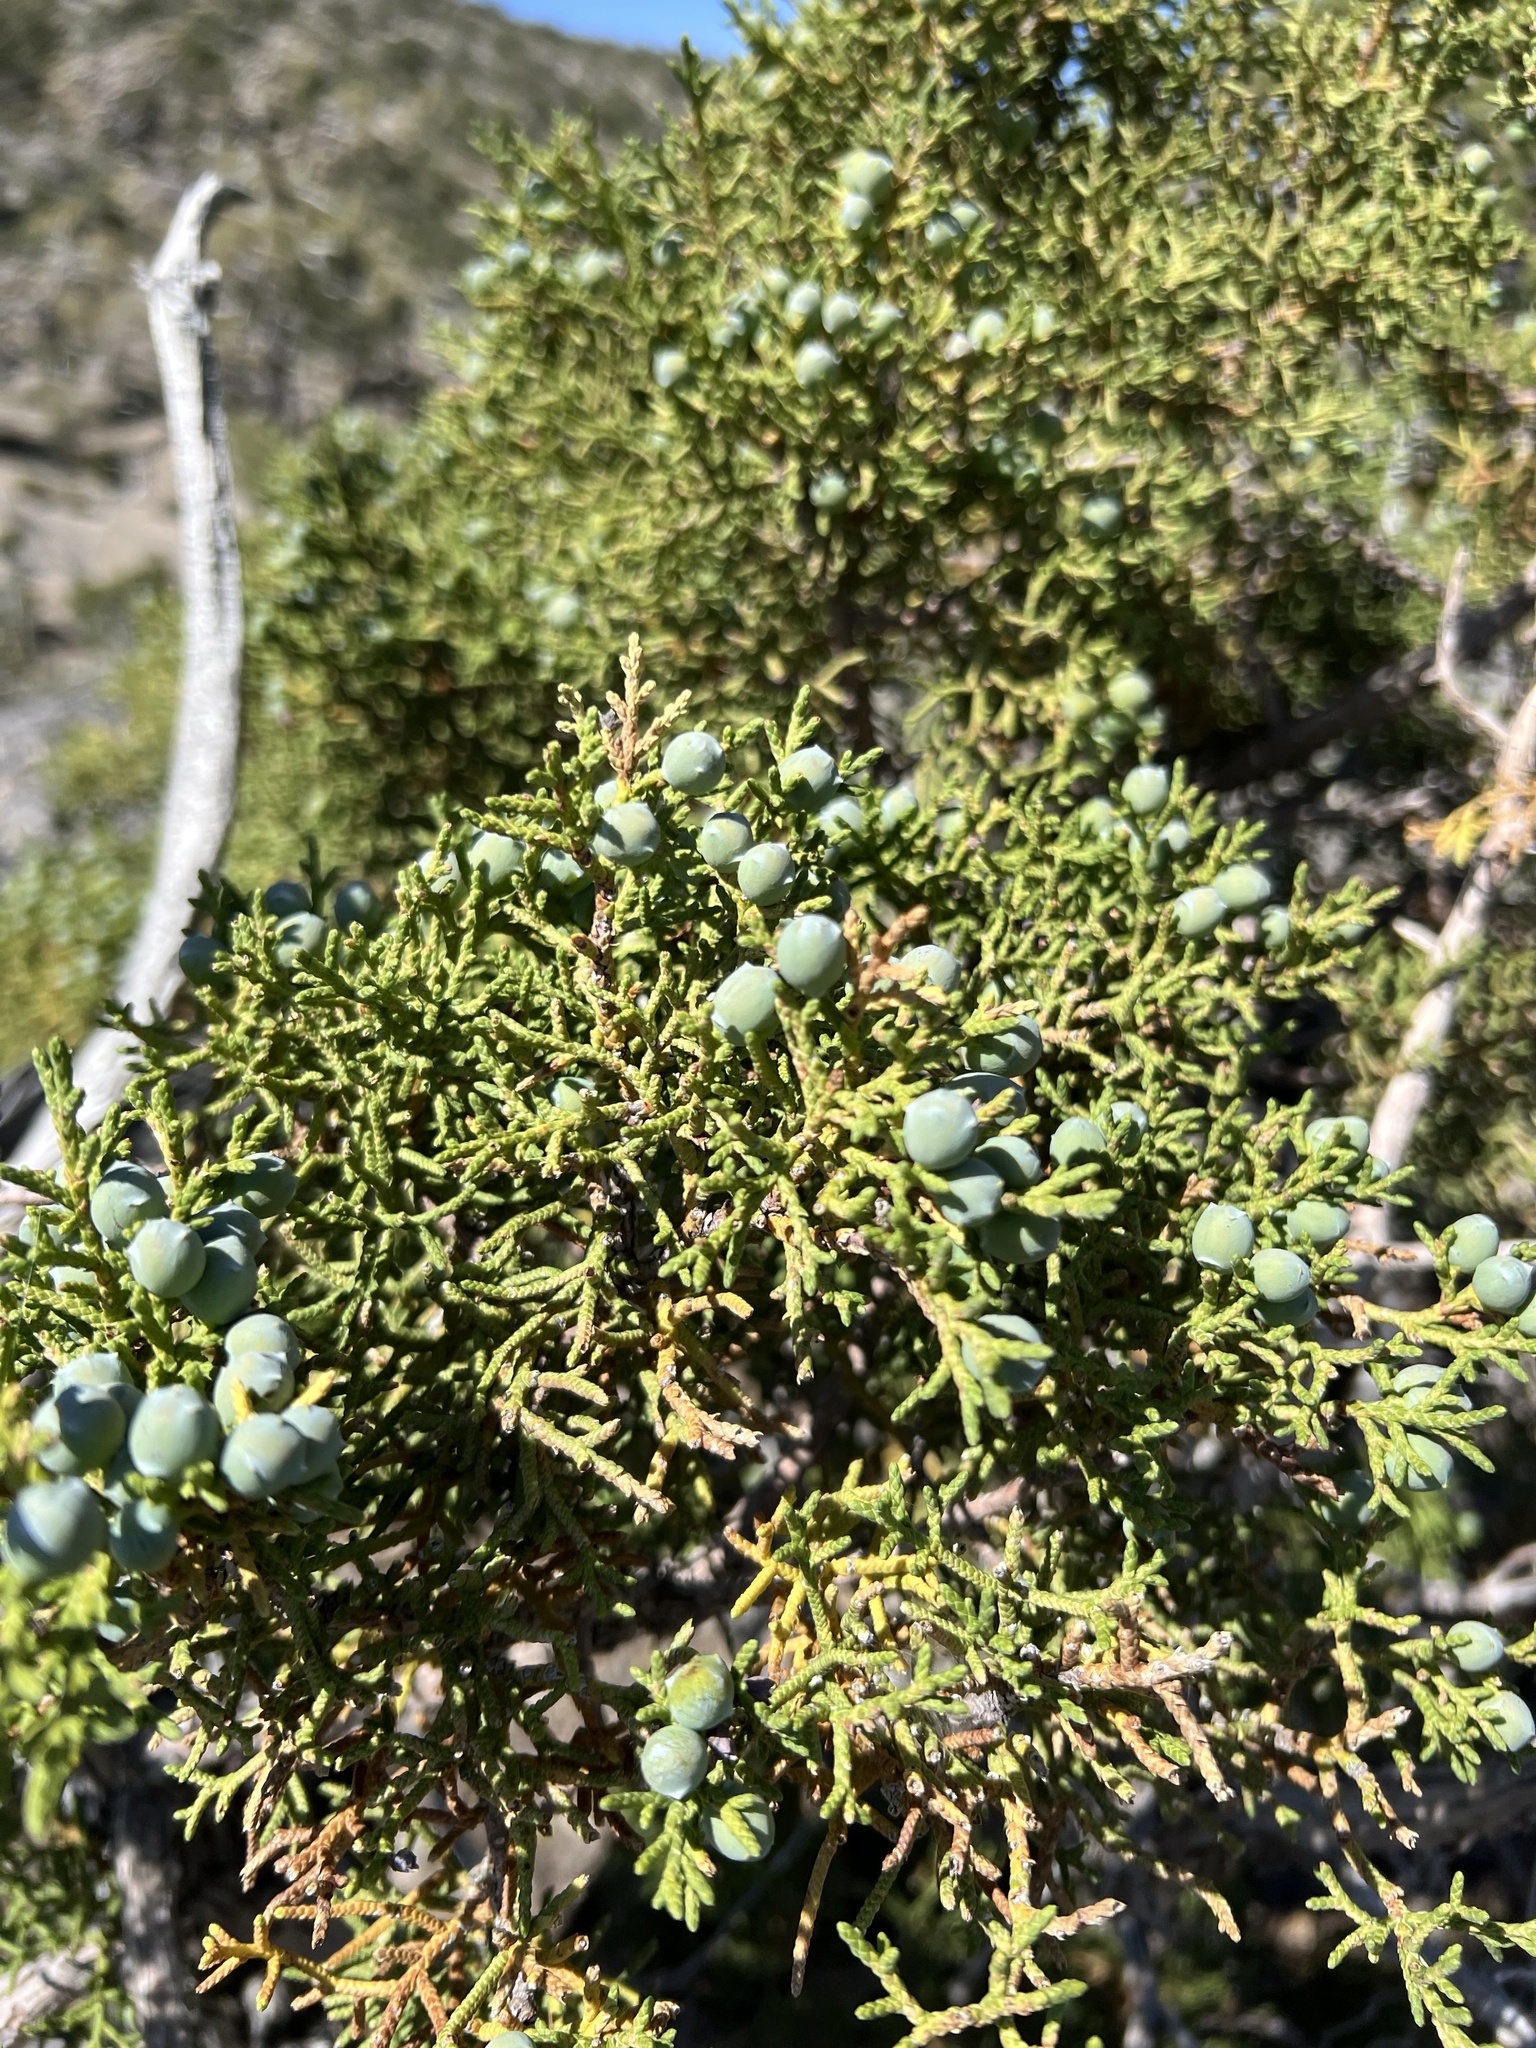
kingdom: Plantae
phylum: Tracheophyta
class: Pinopsida
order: Pinales
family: Cupressaceae
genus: Juniperus
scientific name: Juniperus osteosperma
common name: Utah juniper
